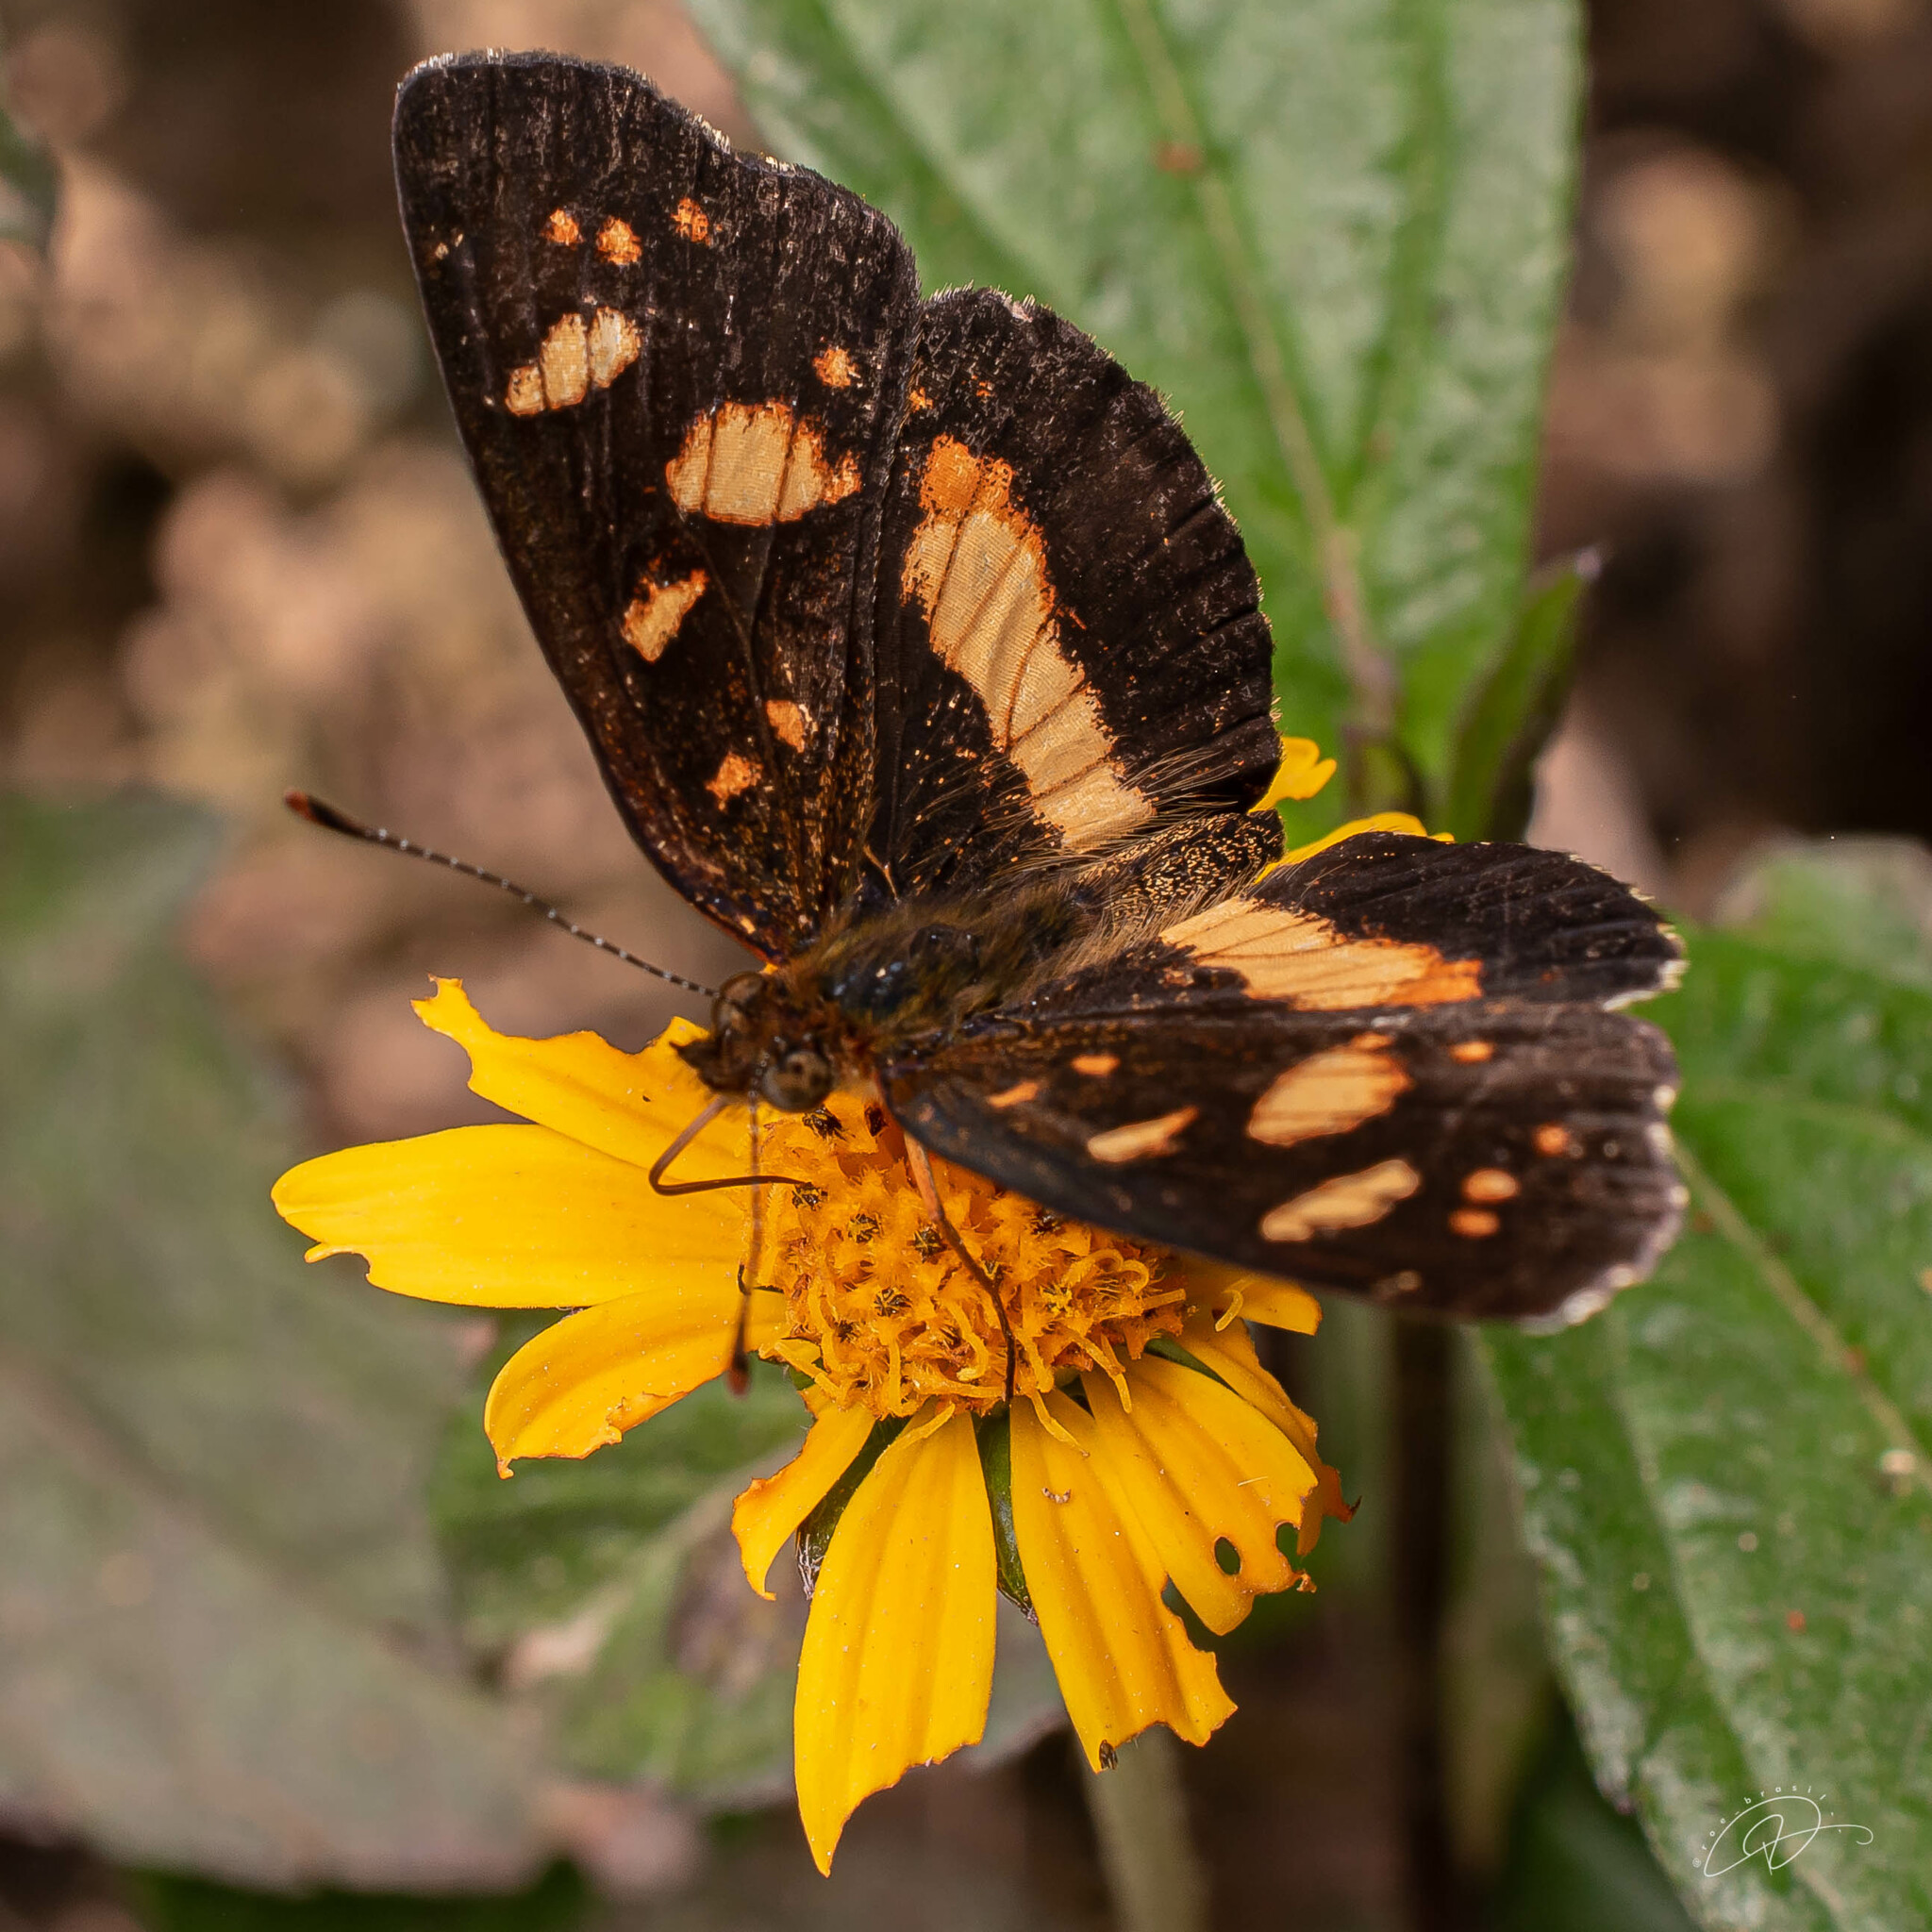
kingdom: Animalia
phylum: Arthropoda
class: Insecta
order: Lepidoptera
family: Nymphalidae
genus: Ortilia
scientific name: Ortilia orthia
